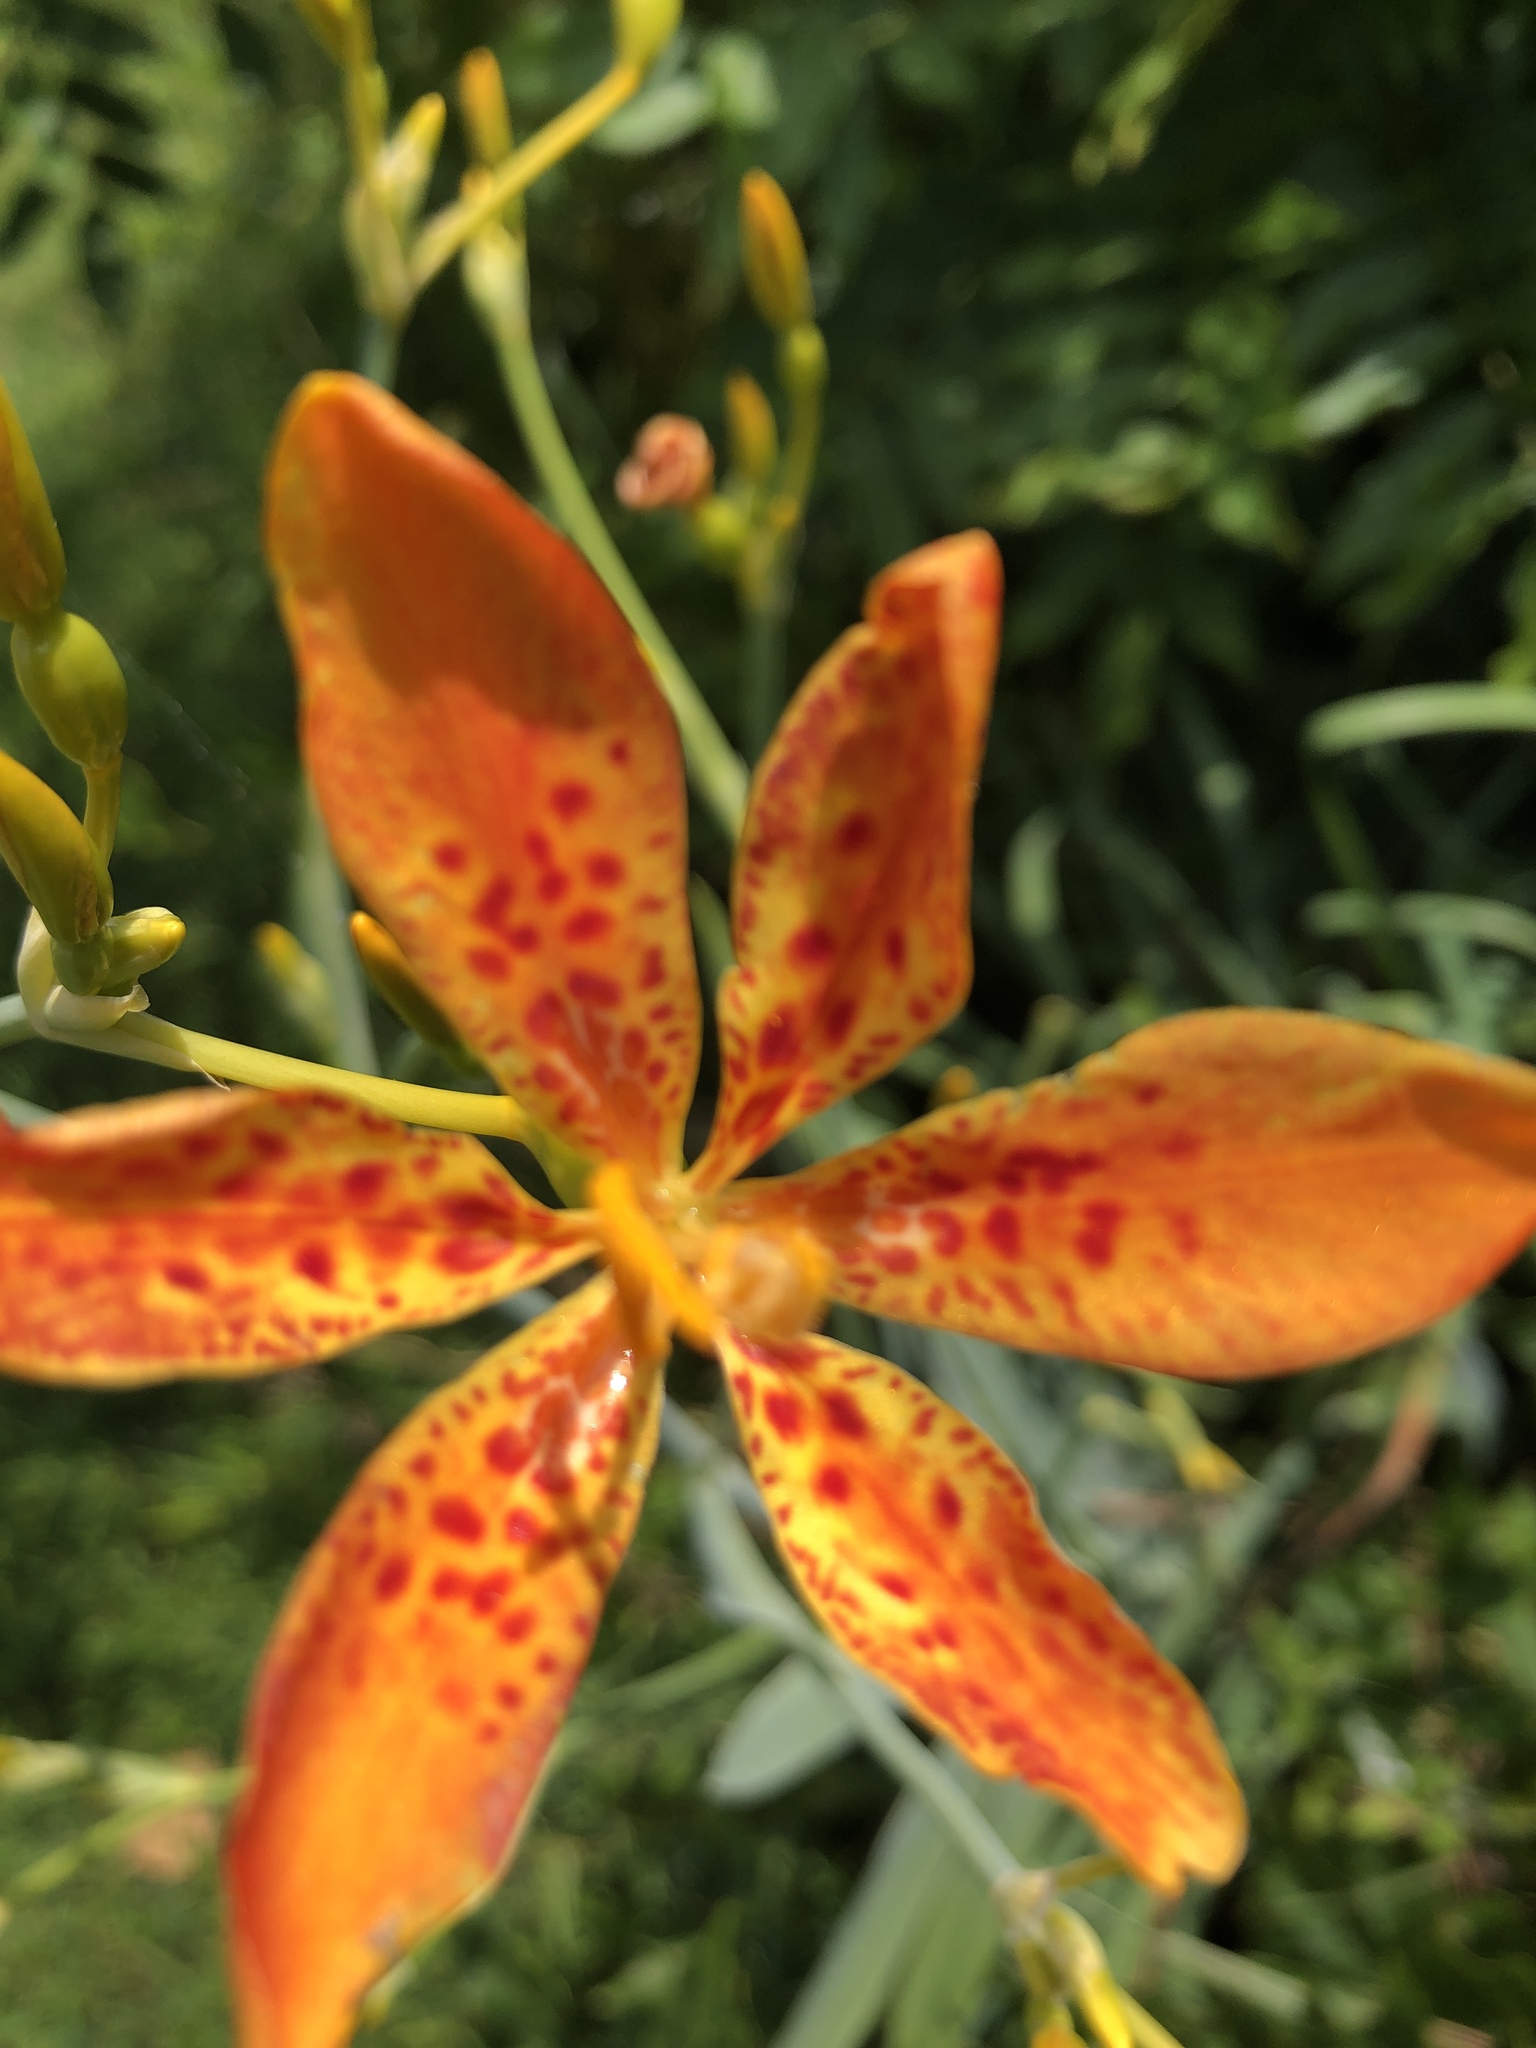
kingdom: Plantae
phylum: Tracheophyta
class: Liliopsida
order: Asparagales
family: Iridaceae
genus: Iris
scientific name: Iris domestica
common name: Belamcanda
